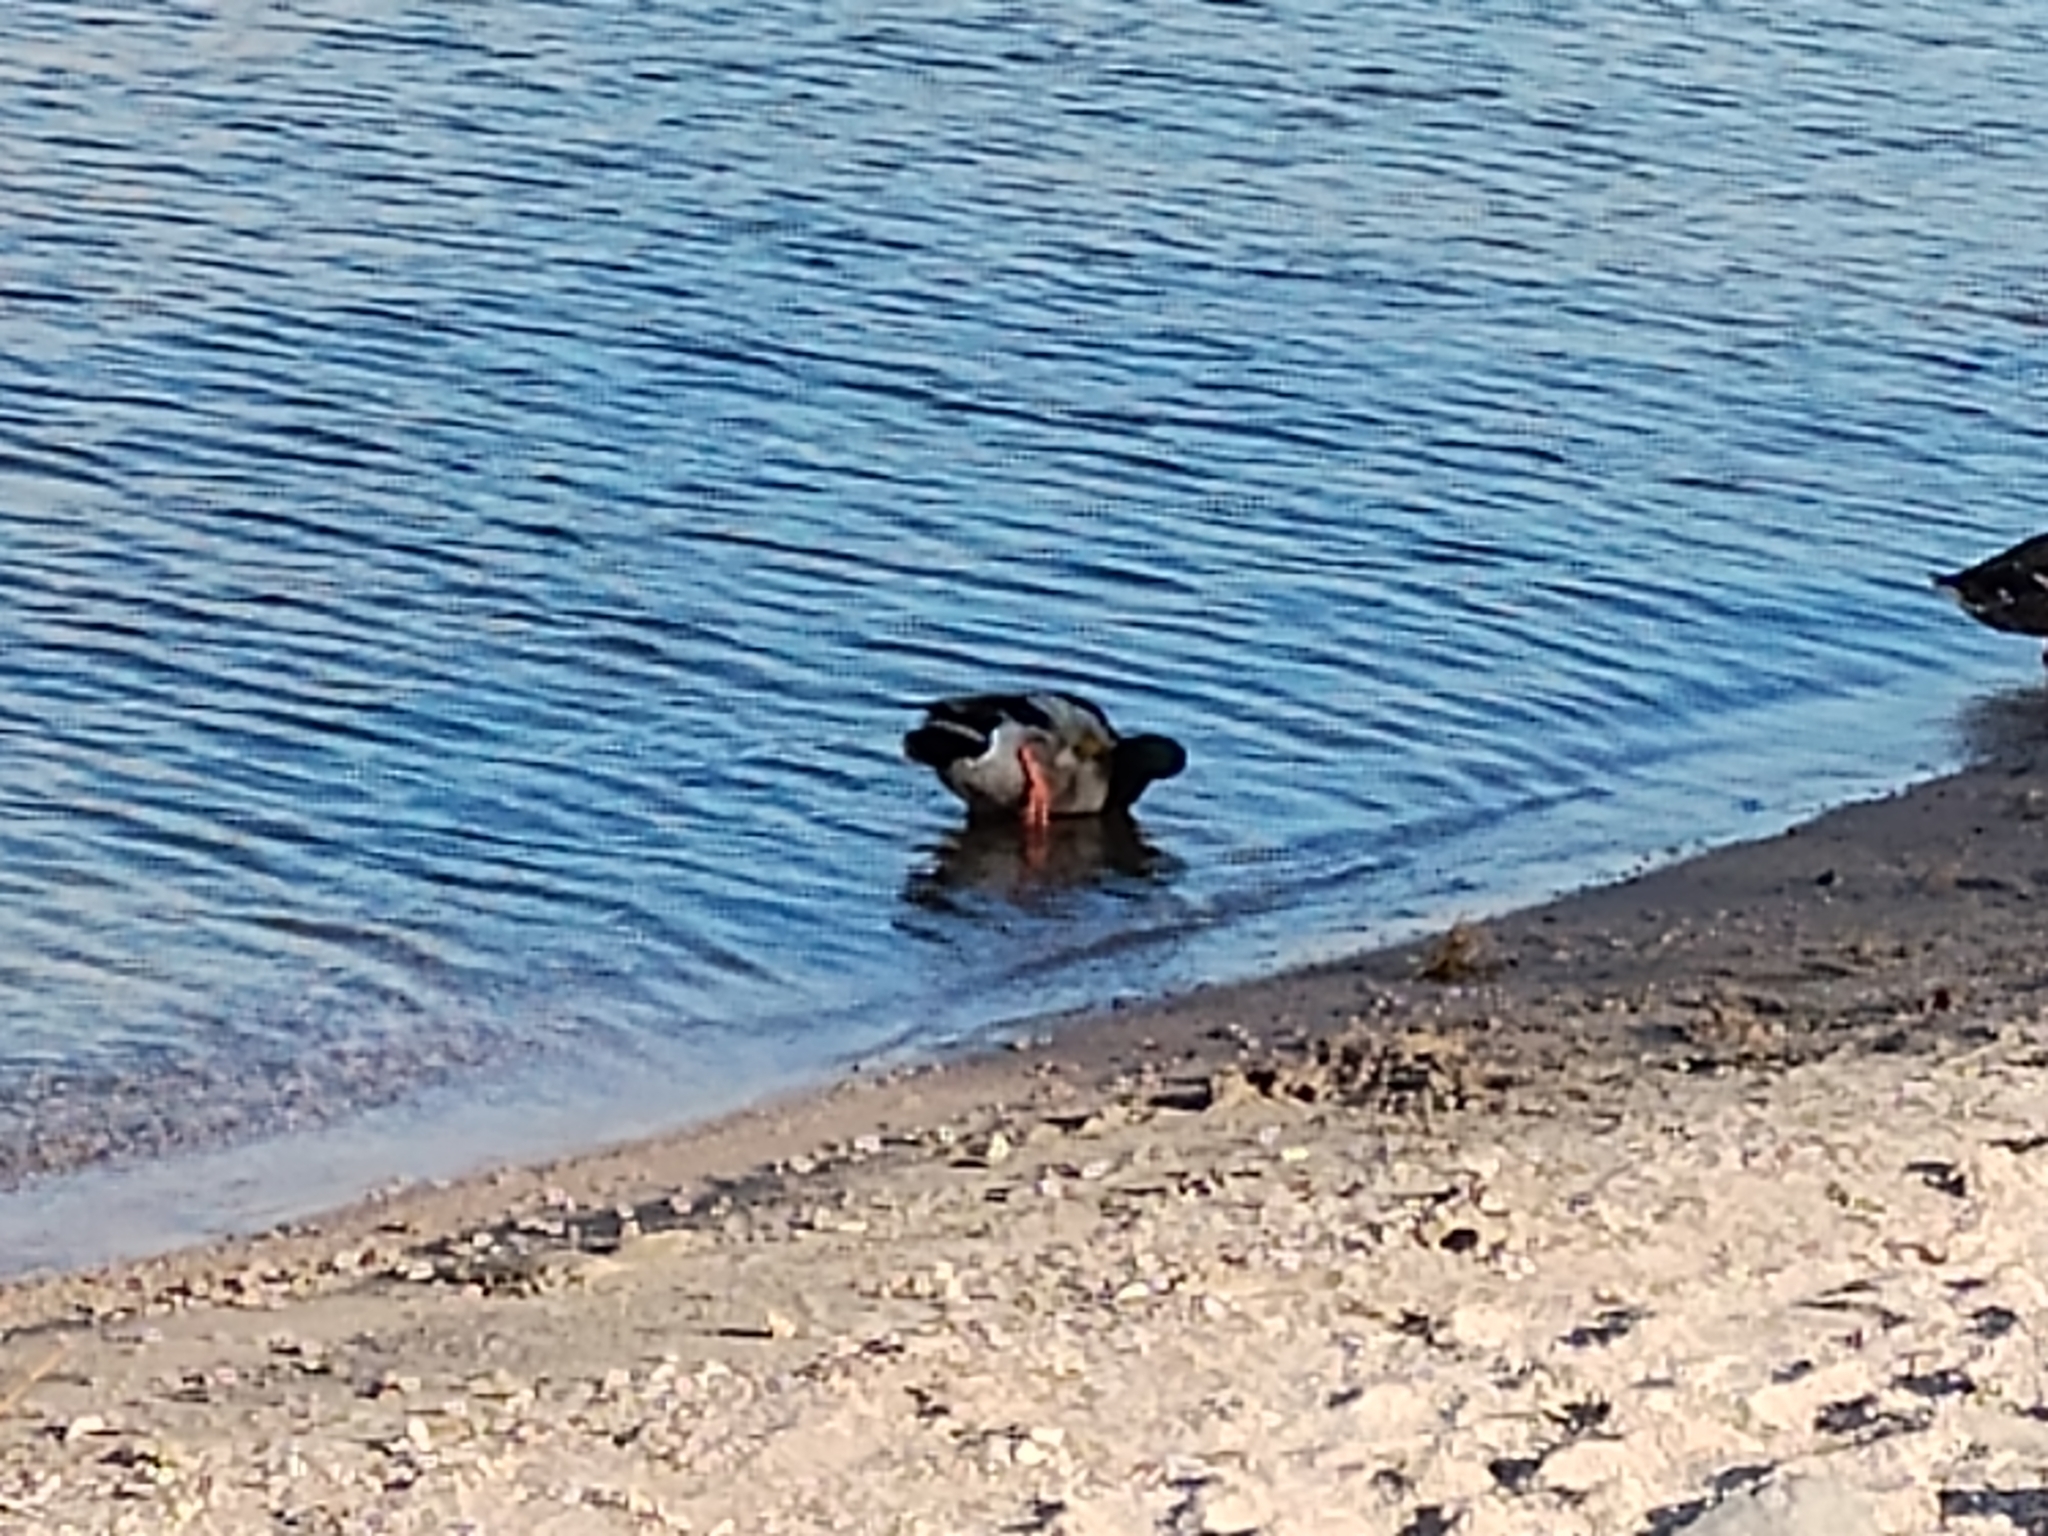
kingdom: Animalia
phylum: Chordata
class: Aves
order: Anseriformes
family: Anatidae
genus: Anas
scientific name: Anas platyrhynchos
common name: Mallard
